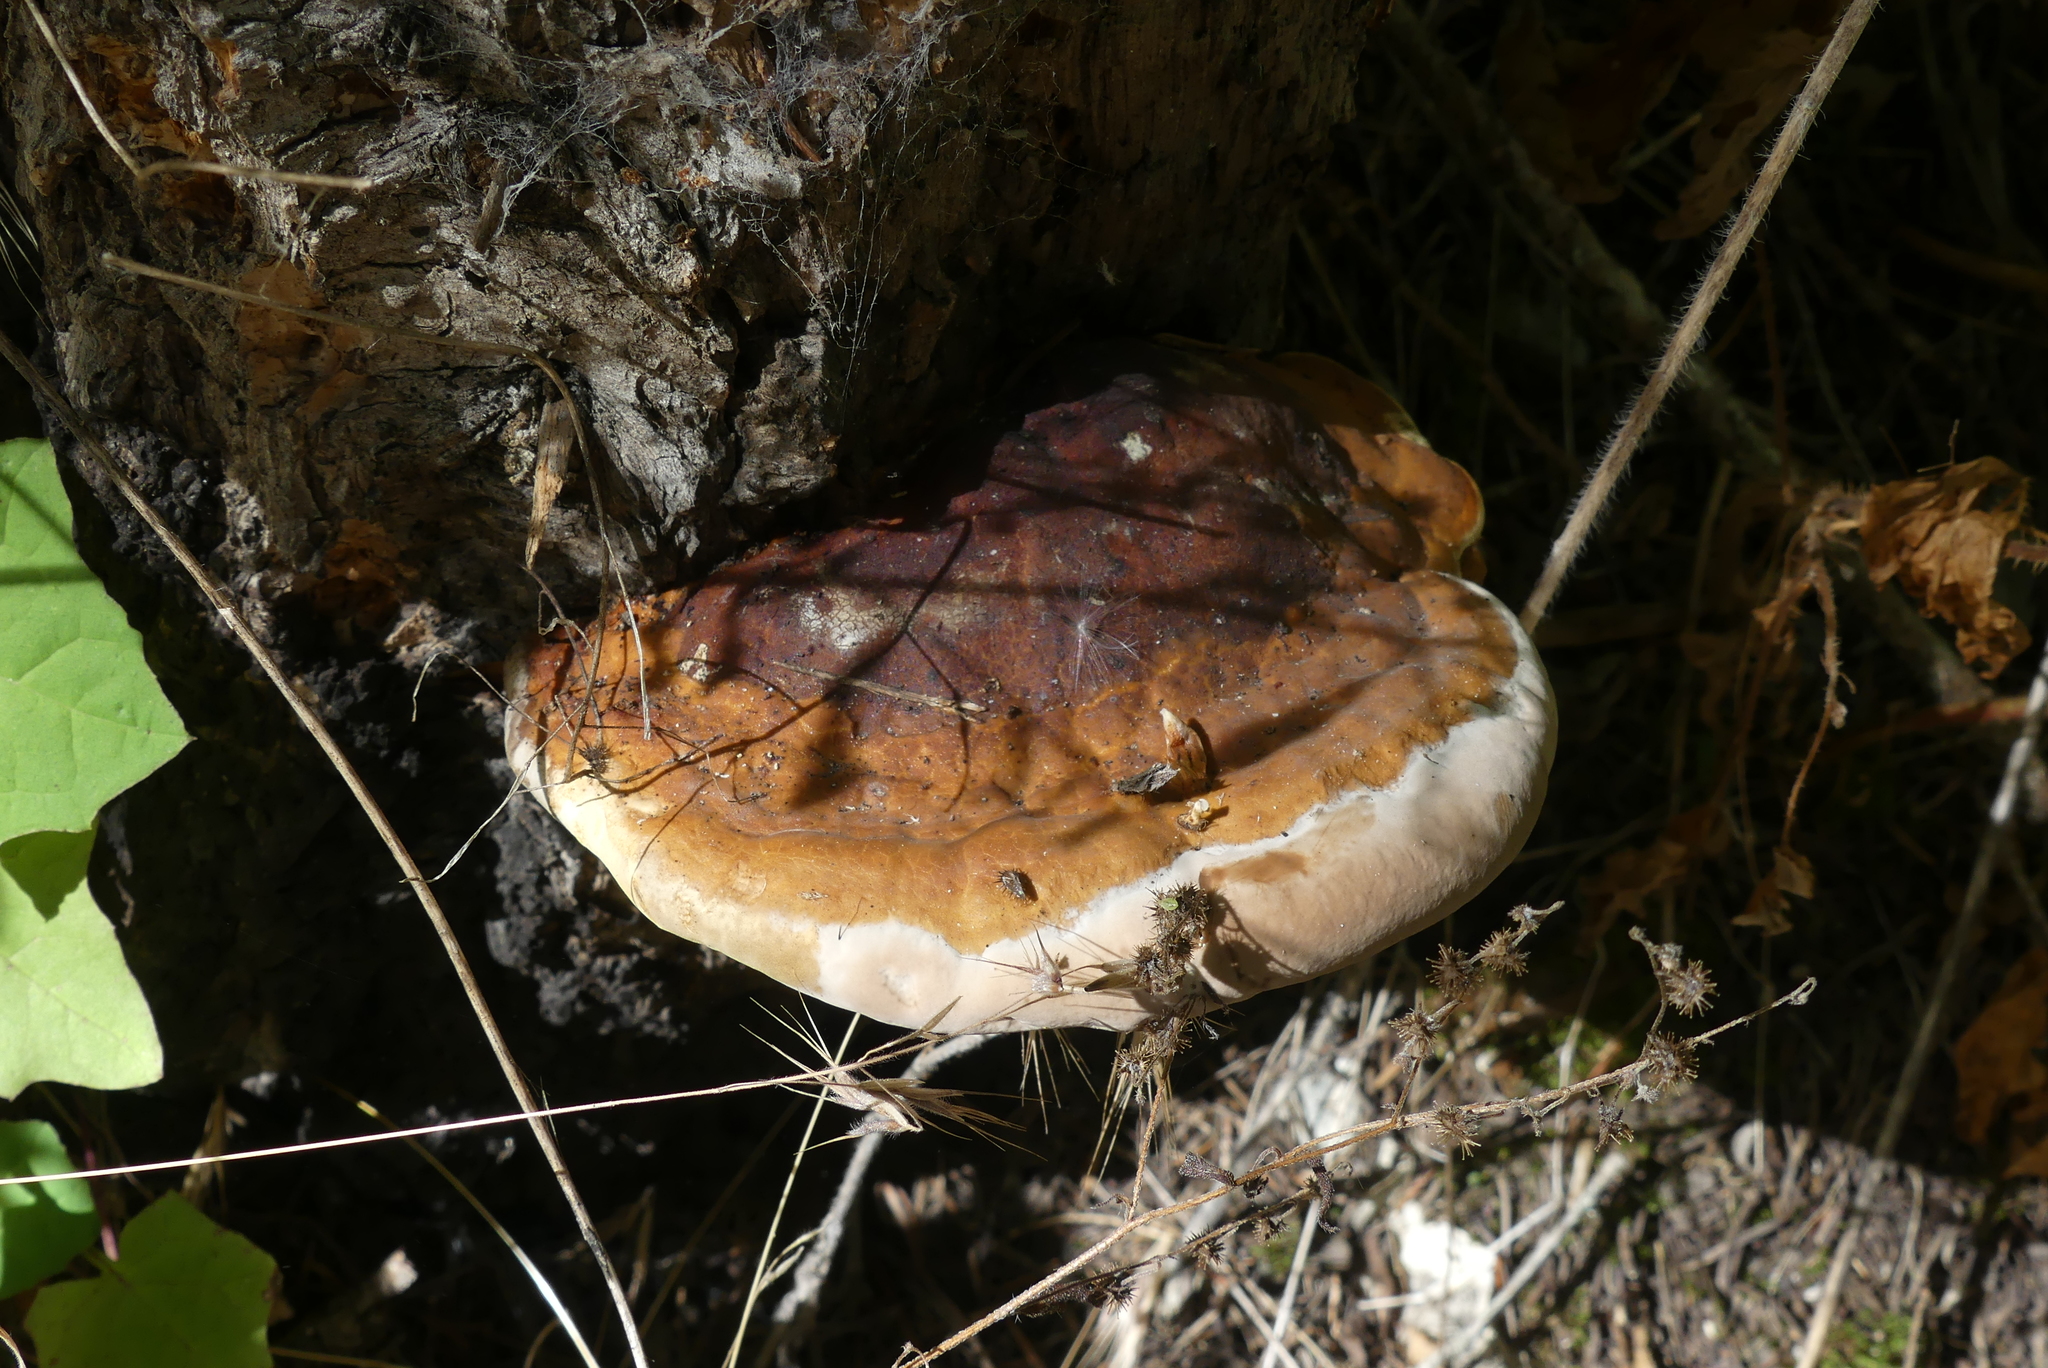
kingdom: Fungi
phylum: Basidiomycota
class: Agaricomycetes
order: Polyporales
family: Fomitopsidaceae
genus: Fomitopsis
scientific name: Fomitopsis mounceae
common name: Northern red belt
